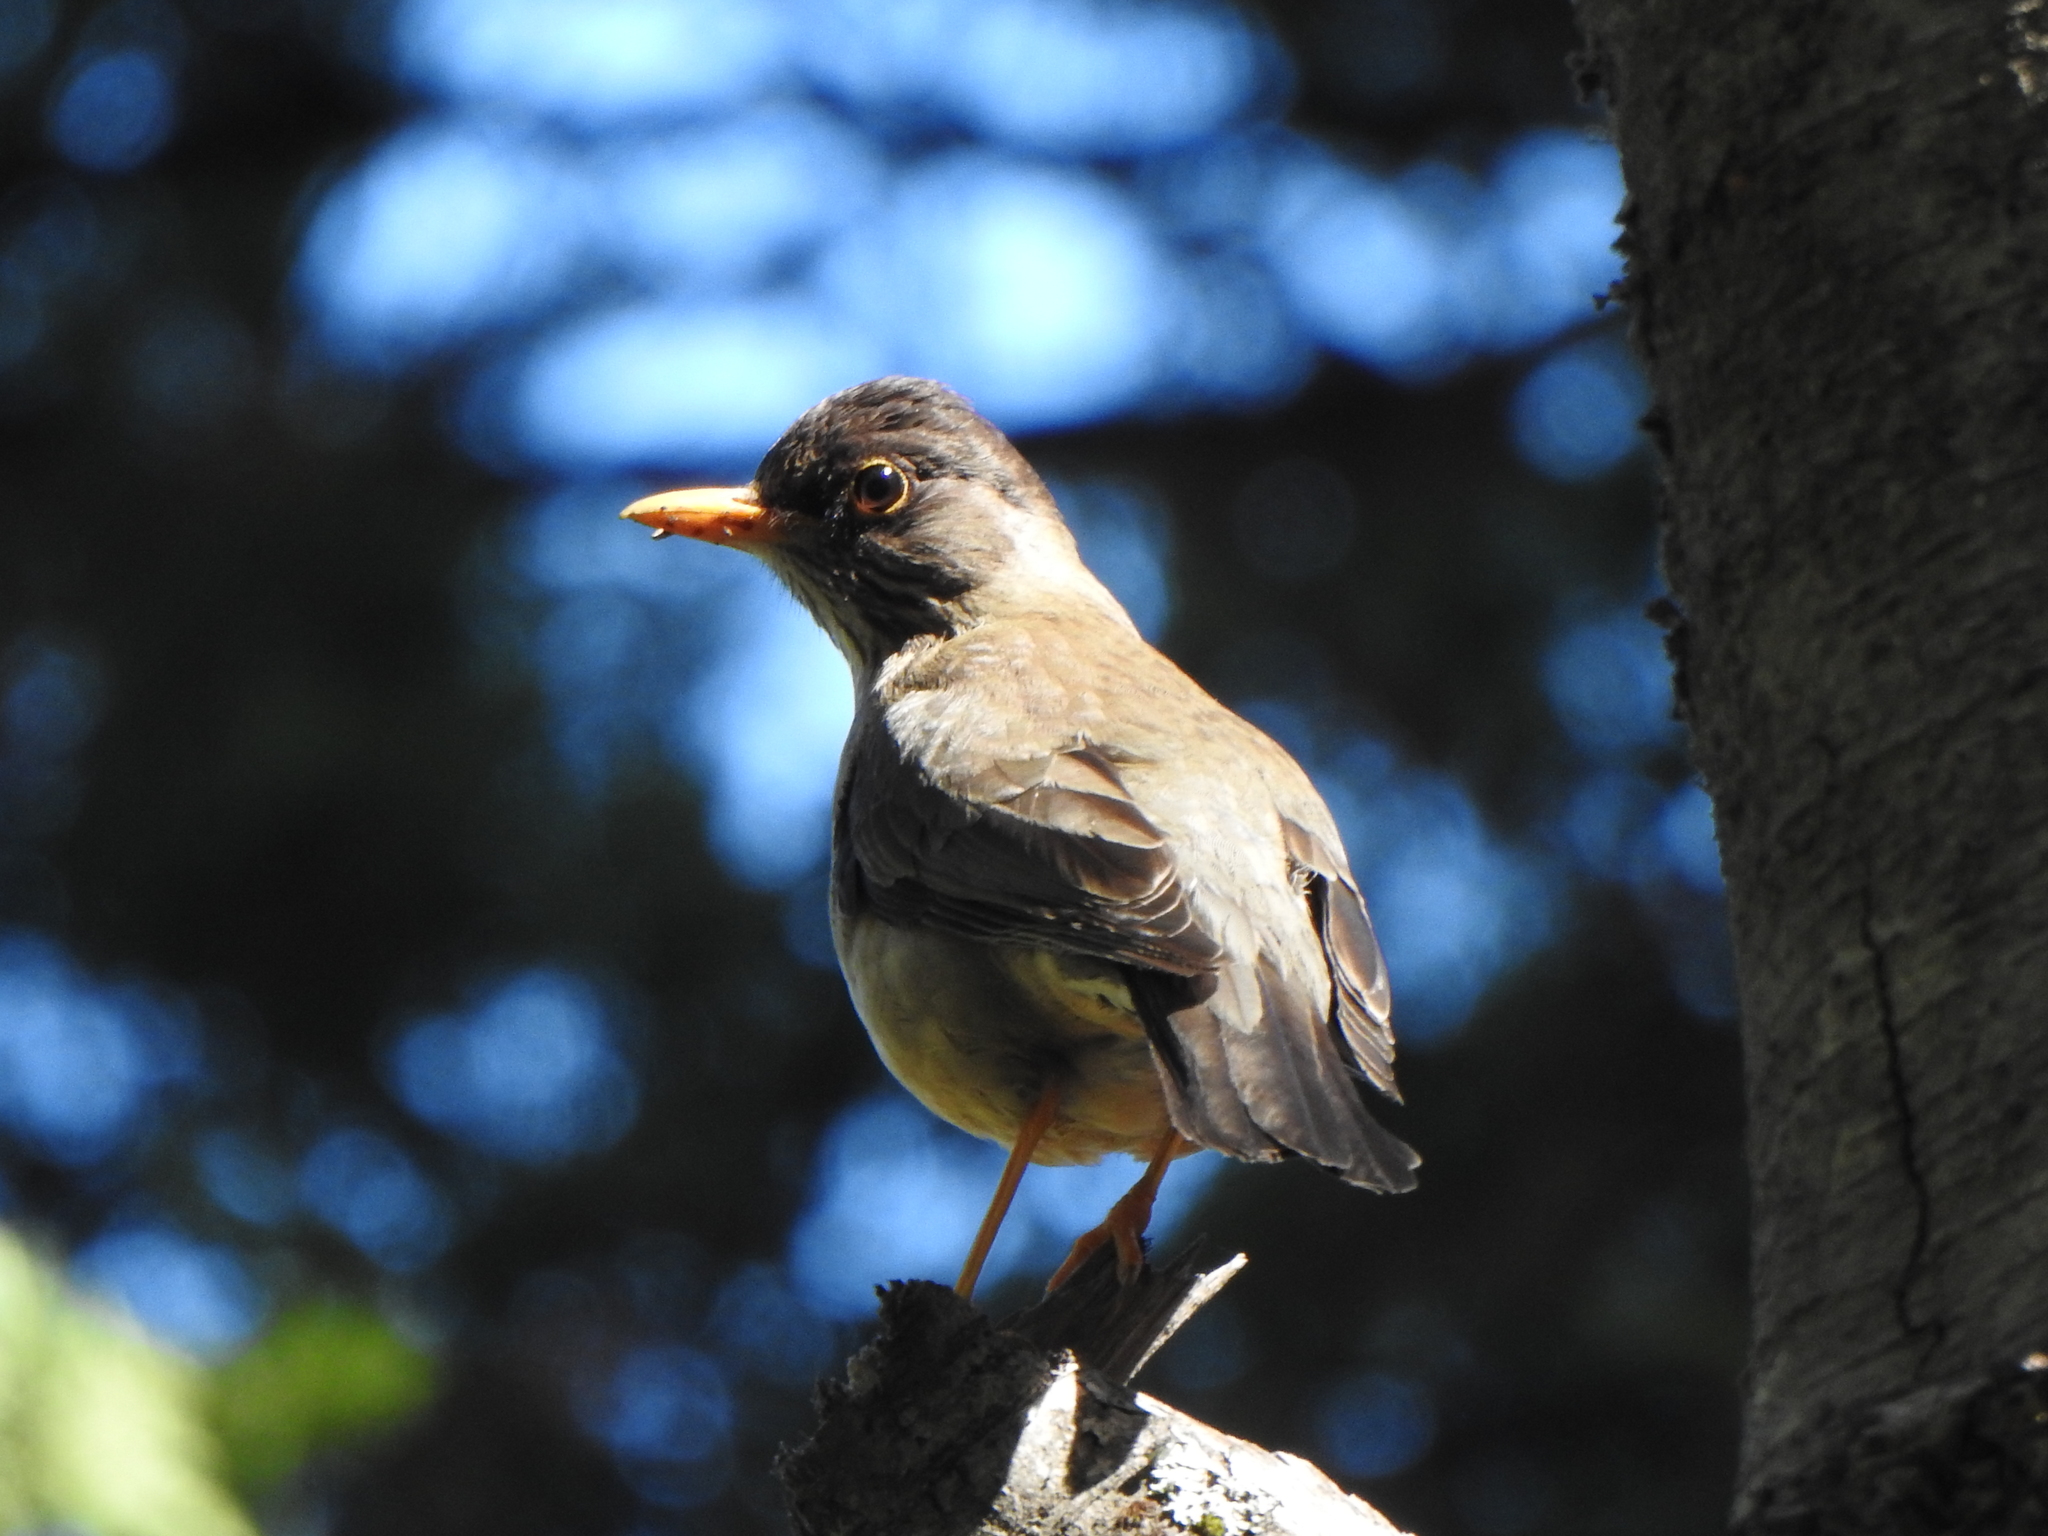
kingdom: Animalia
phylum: Chordata
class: Aves
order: Passeriformes
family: Turdidae
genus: Turdus
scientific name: Turdus falcklandii
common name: Austral thrush
